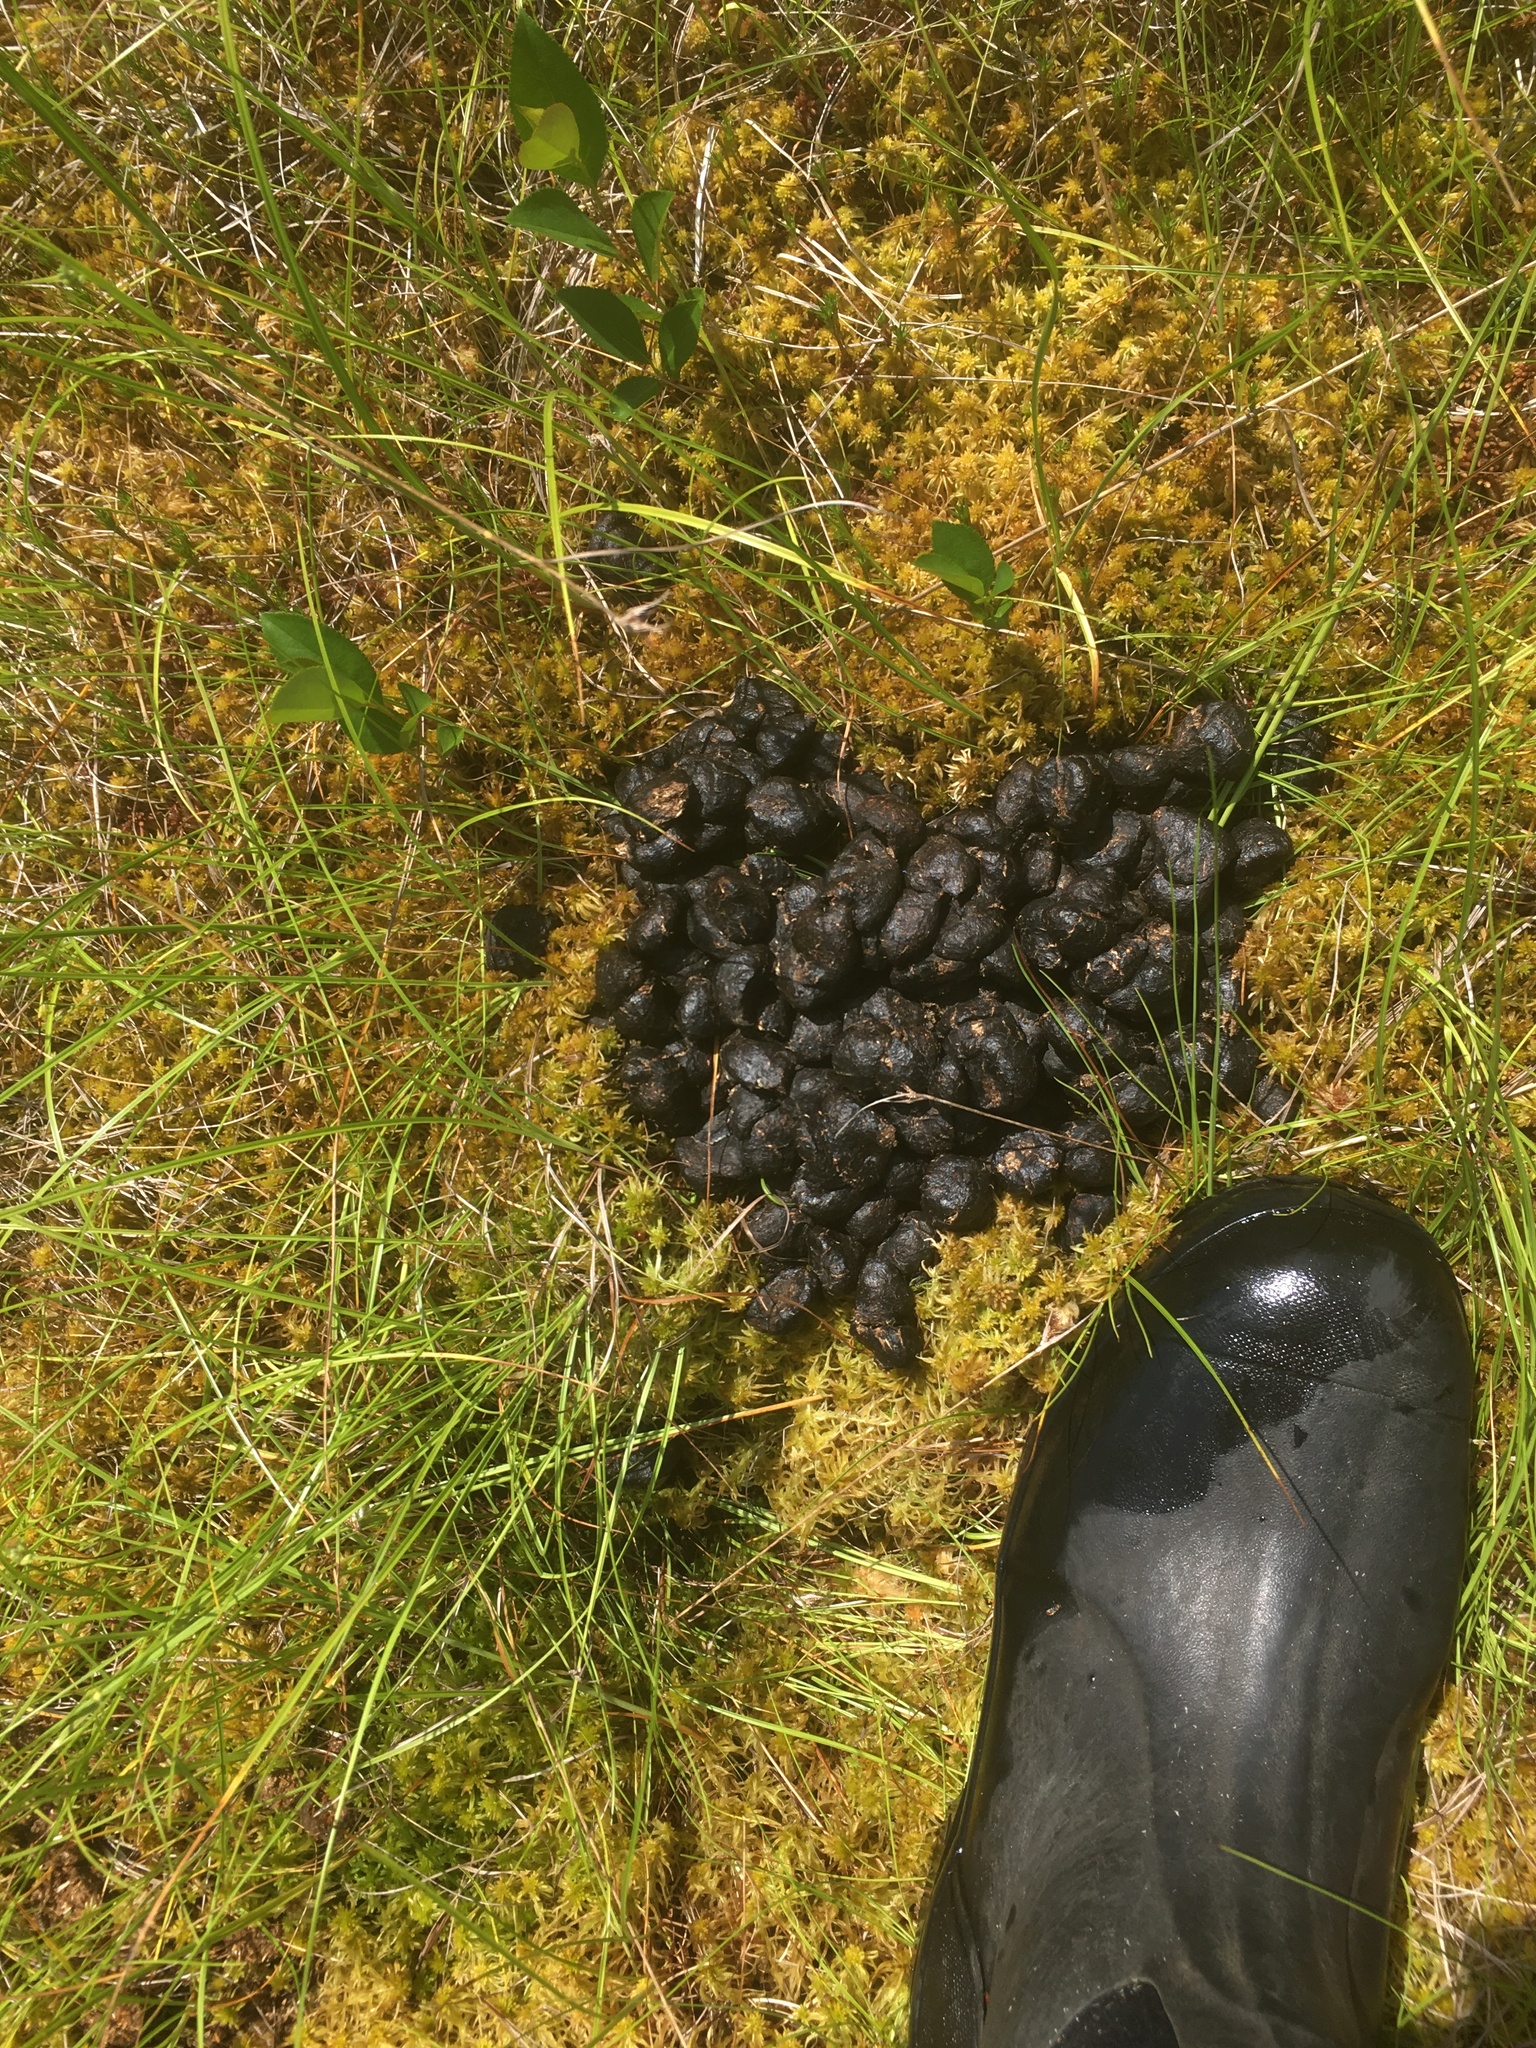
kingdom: Animalia
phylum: Chordata
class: Mammalia
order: Artiodactyla
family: Cervidae
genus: Alces
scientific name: Alces alces
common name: Moose
